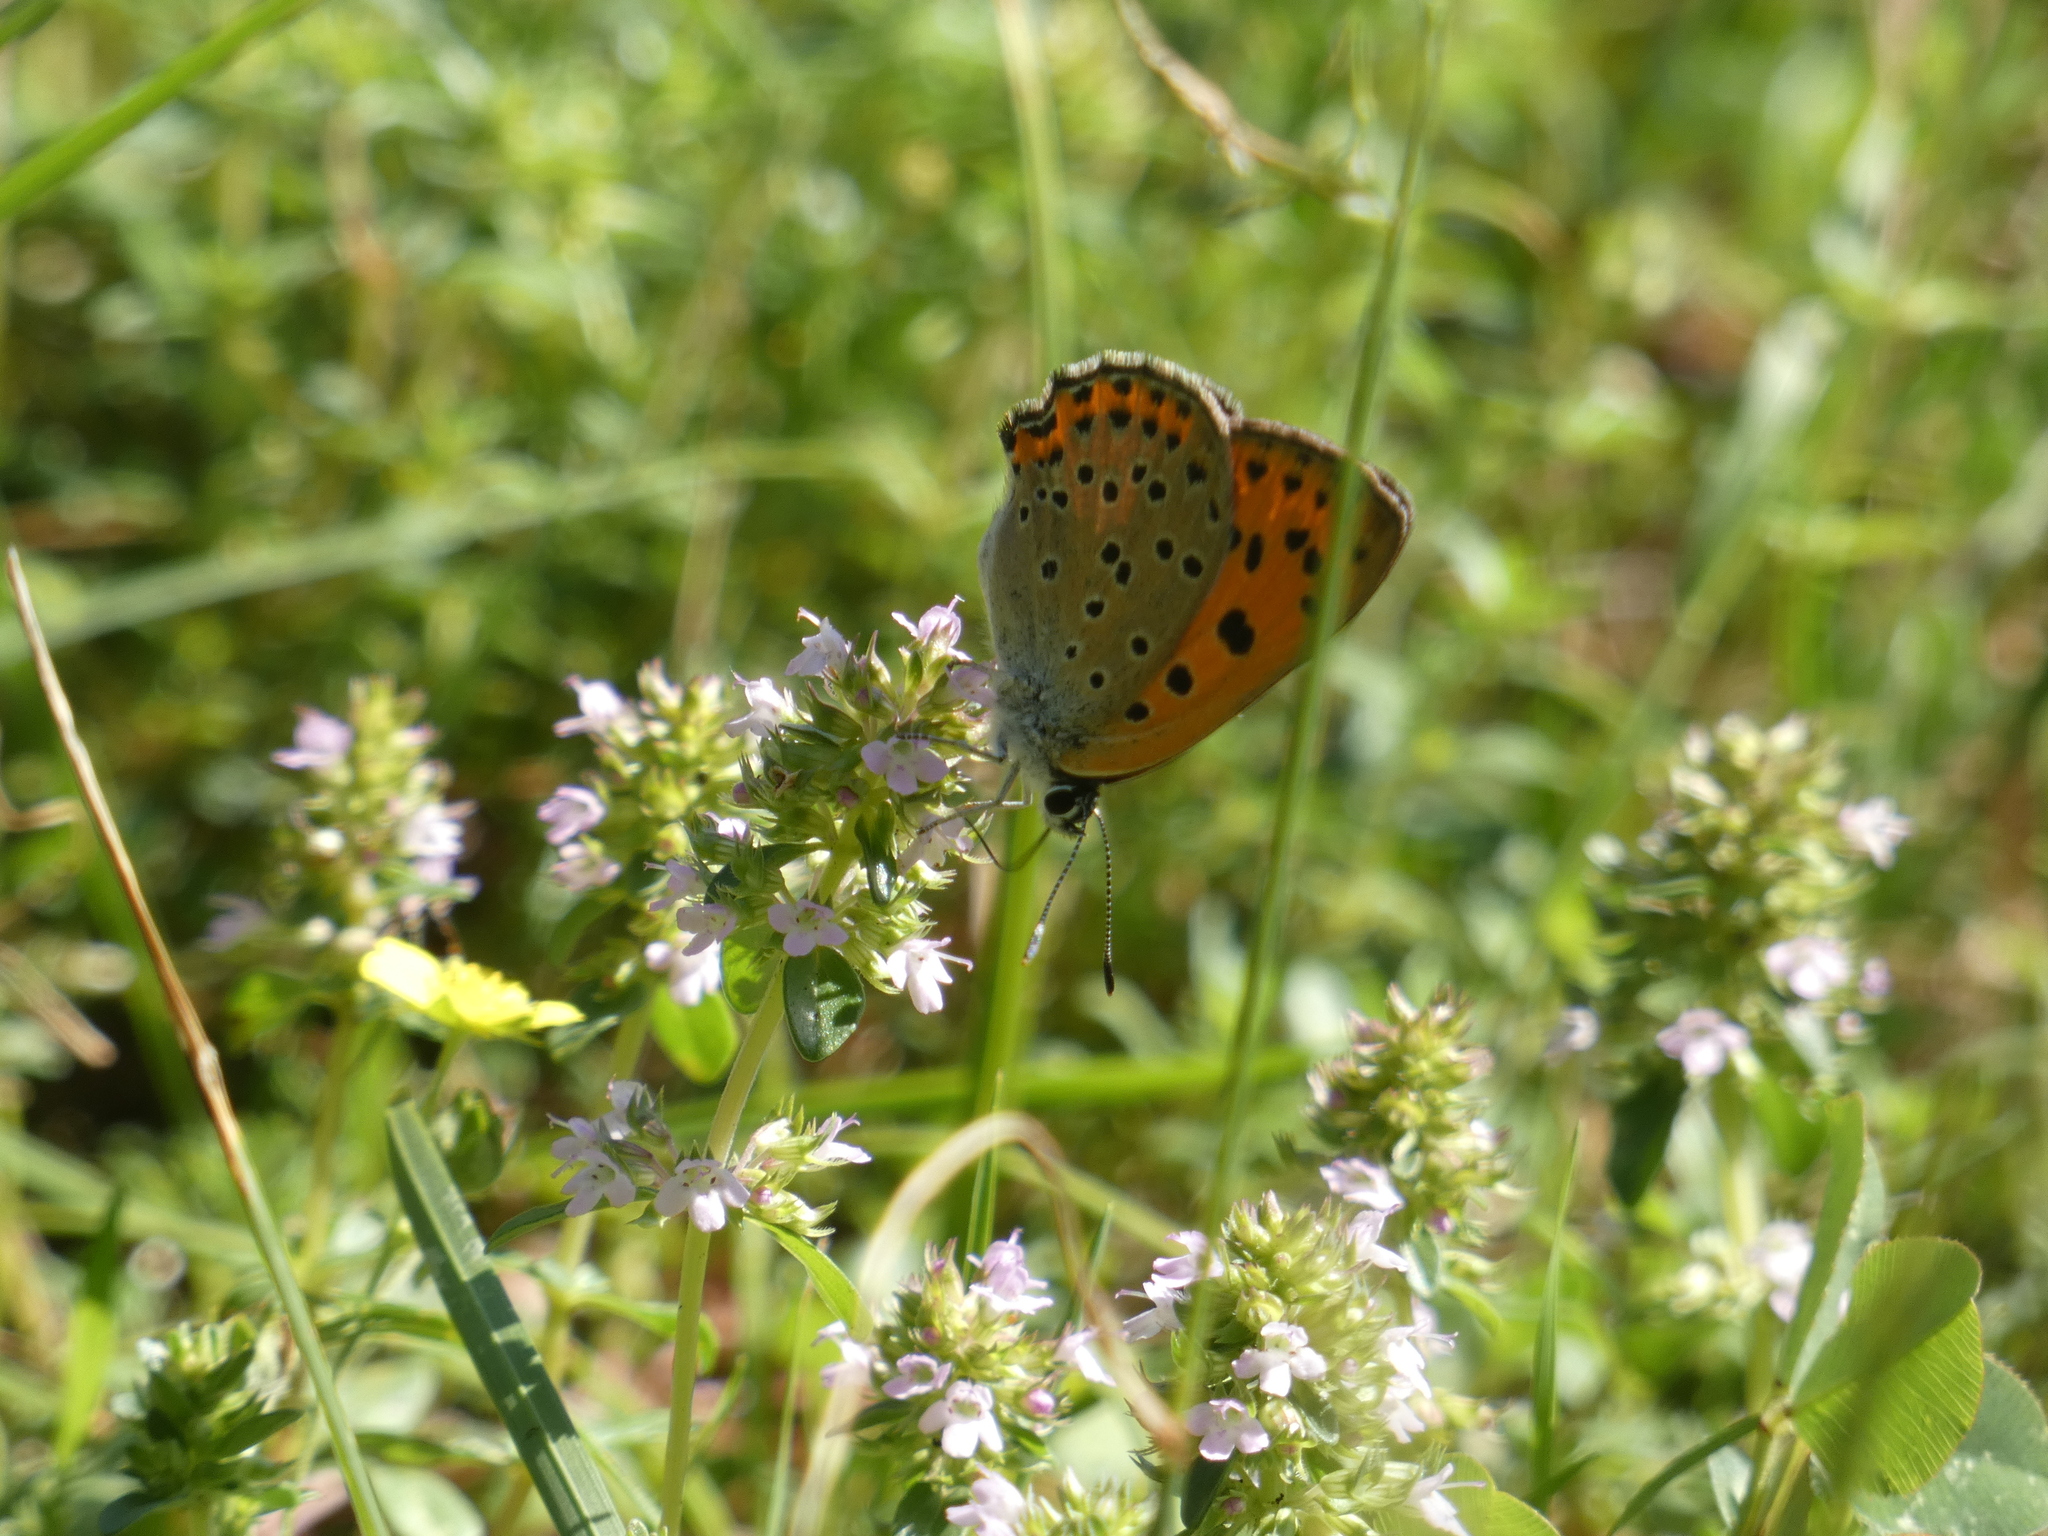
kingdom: Animalia
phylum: Arthropoda
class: Insecta
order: Lepidoptera
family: Lycaenidae
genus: Lycaena
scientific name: Lycaena alciphron
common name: Purple-shot copper
